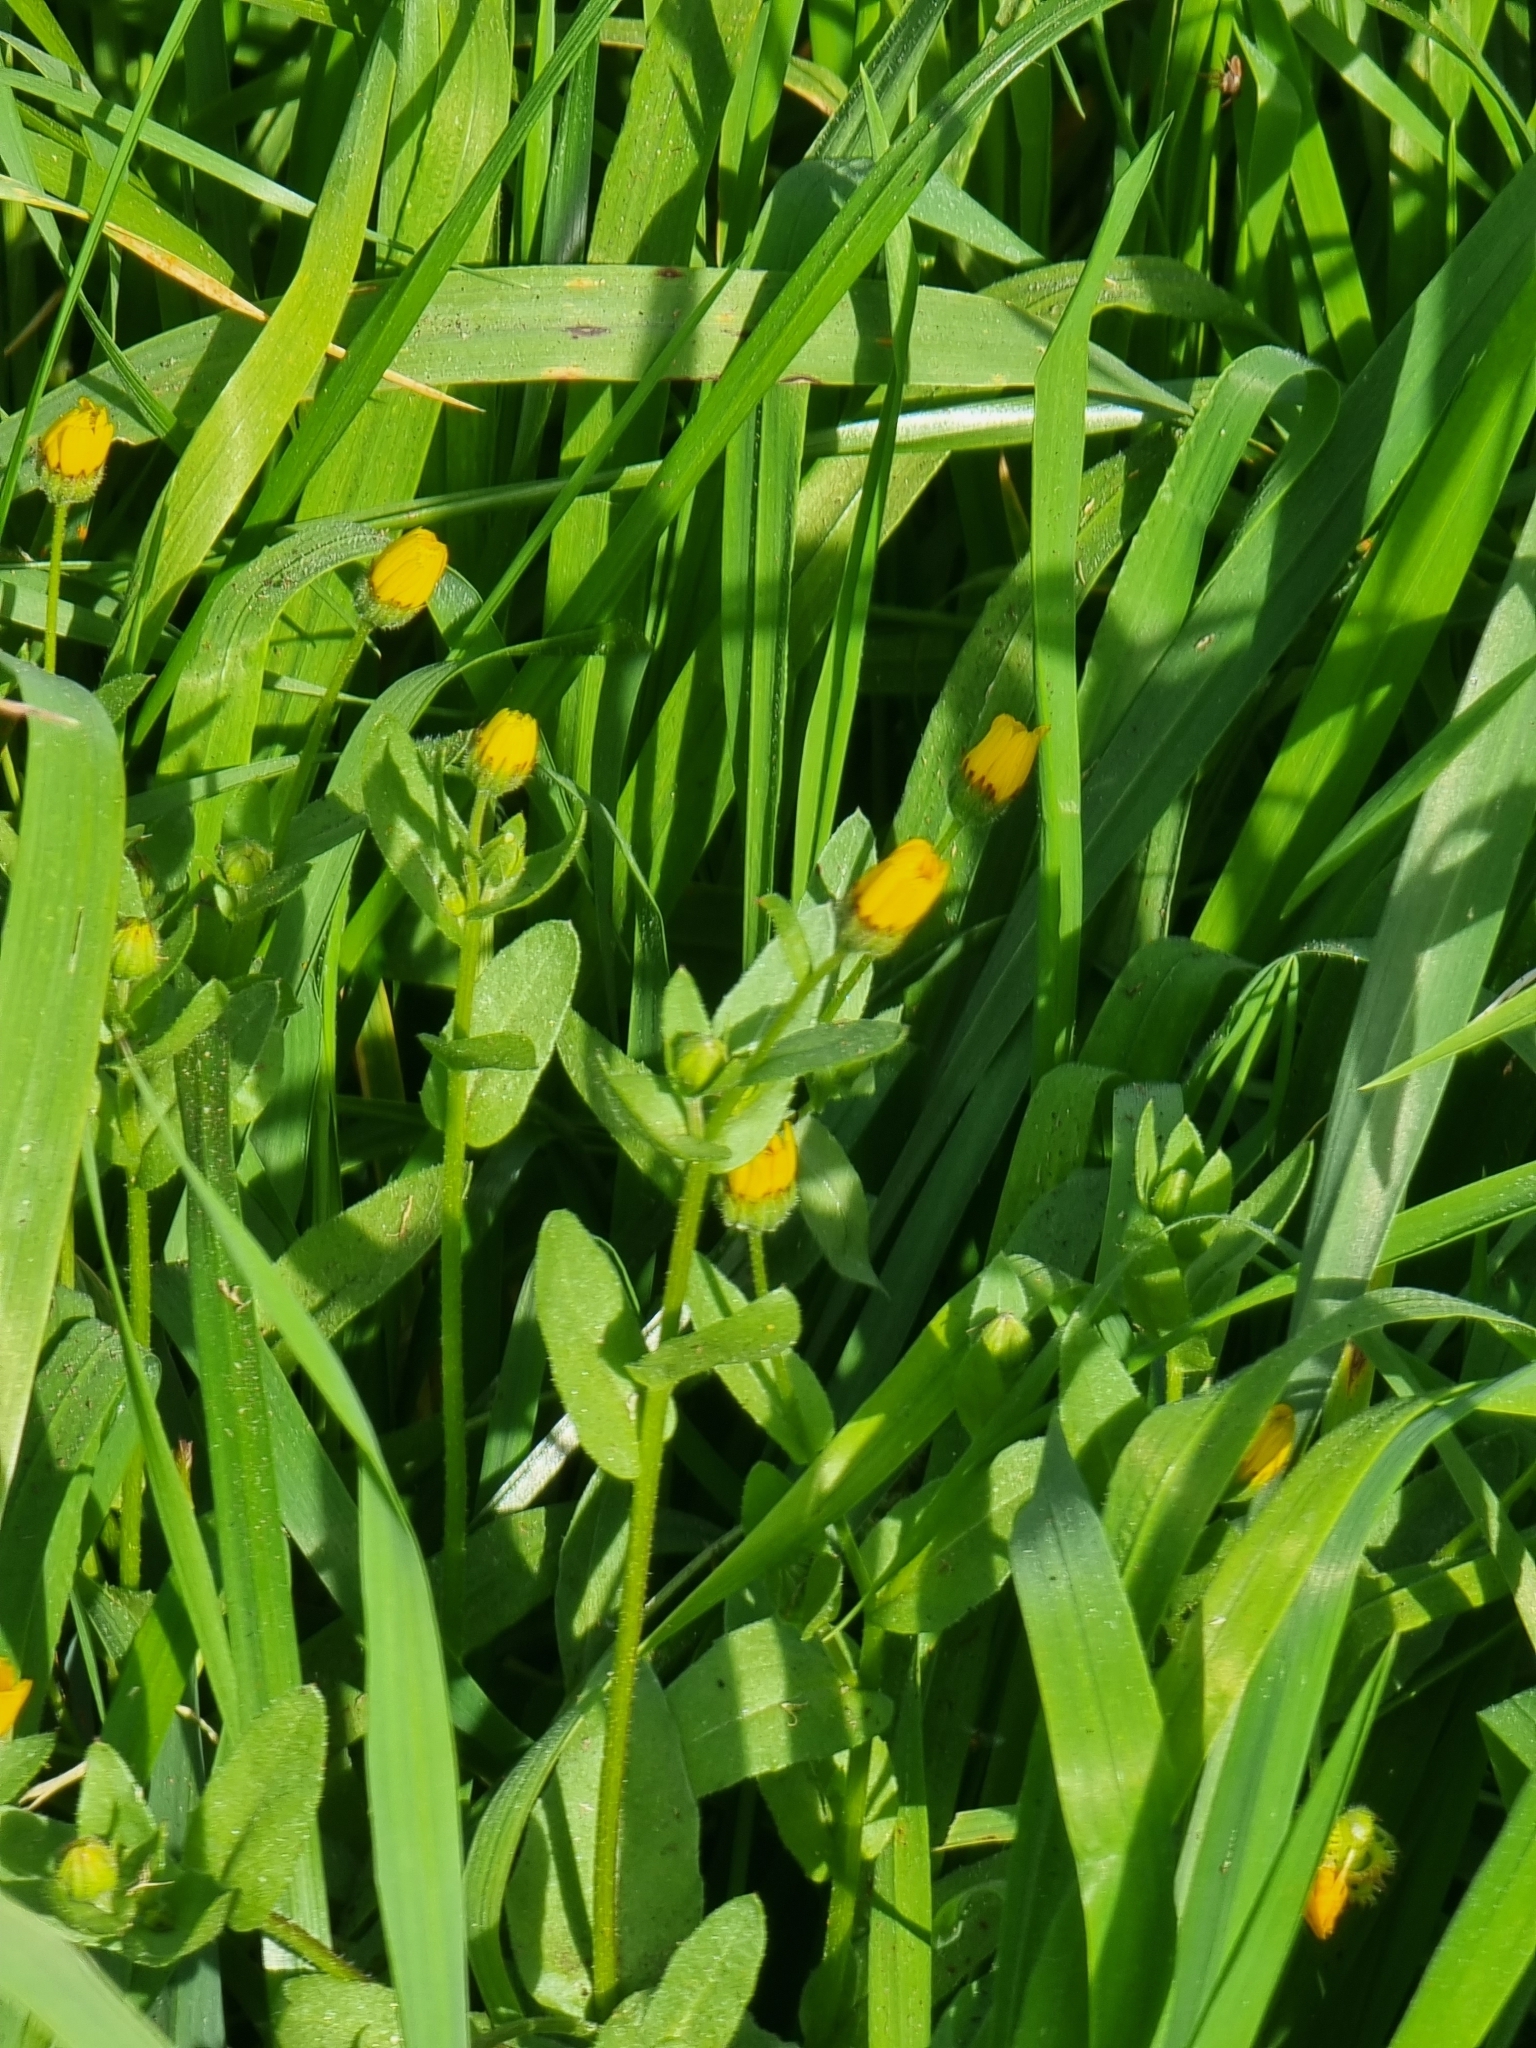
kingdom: Plantae
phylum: Tracheophyta
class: Magnoliopsida
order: Asterales
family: Asteraceae
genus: Calendula
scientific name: Calendula arvensis
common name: Field marigold
